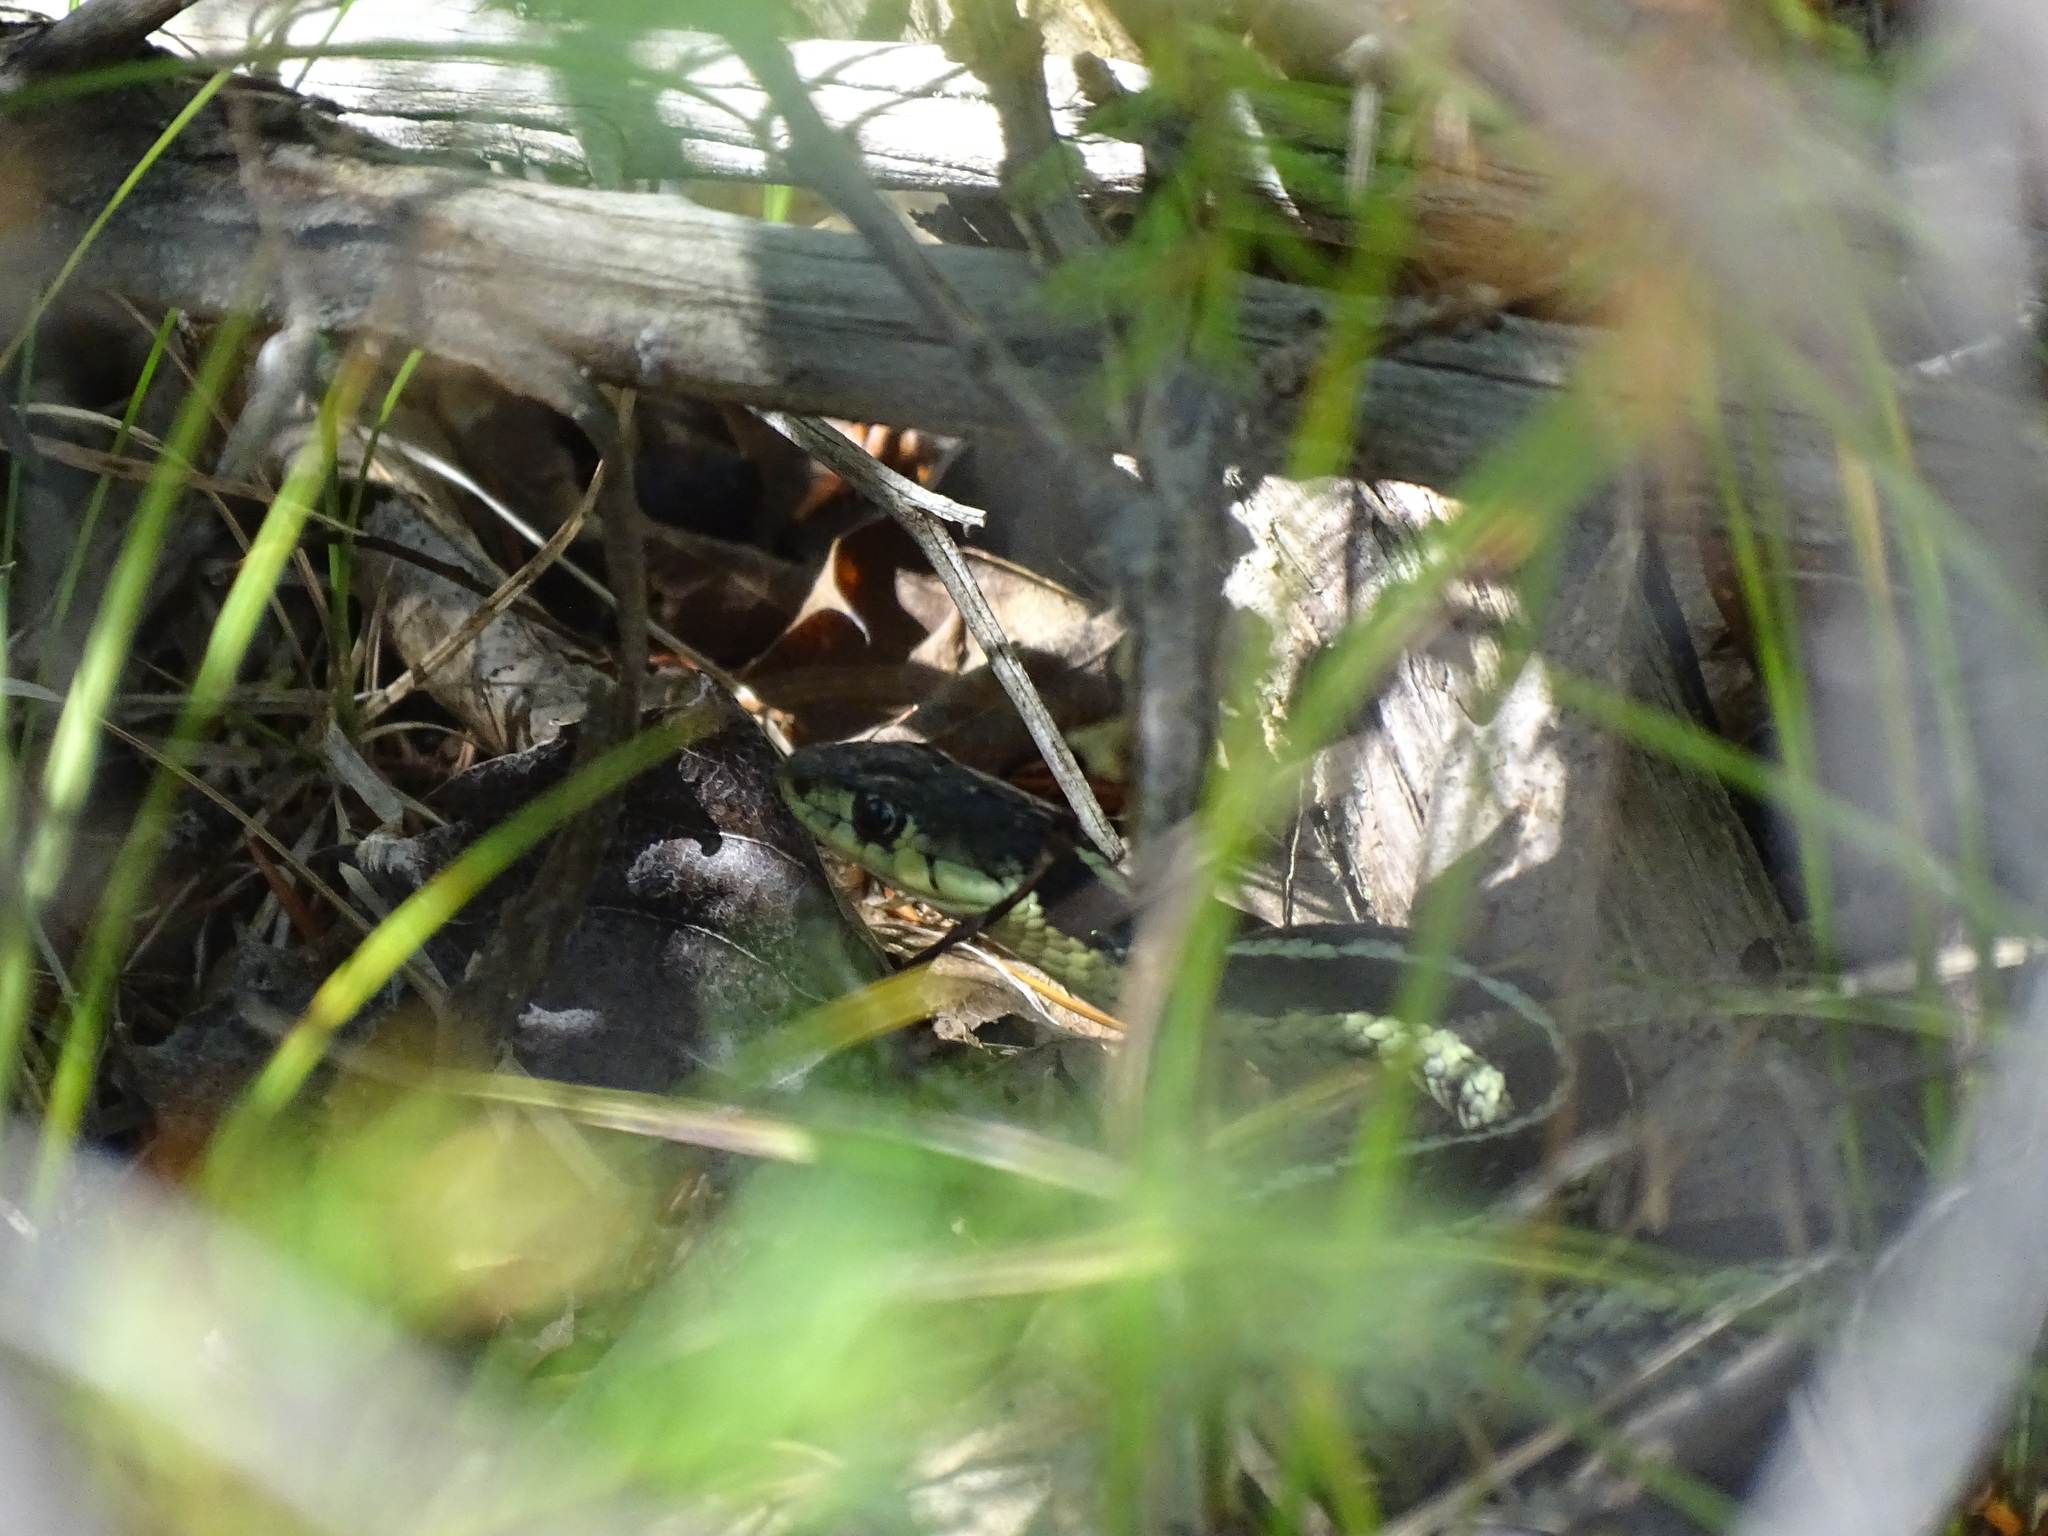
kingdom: Animalia
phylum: Chordata
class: Squamata
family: Colubridae
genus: Thamnophis
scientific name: Thamnophis sirtalis
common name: Common garter snake
